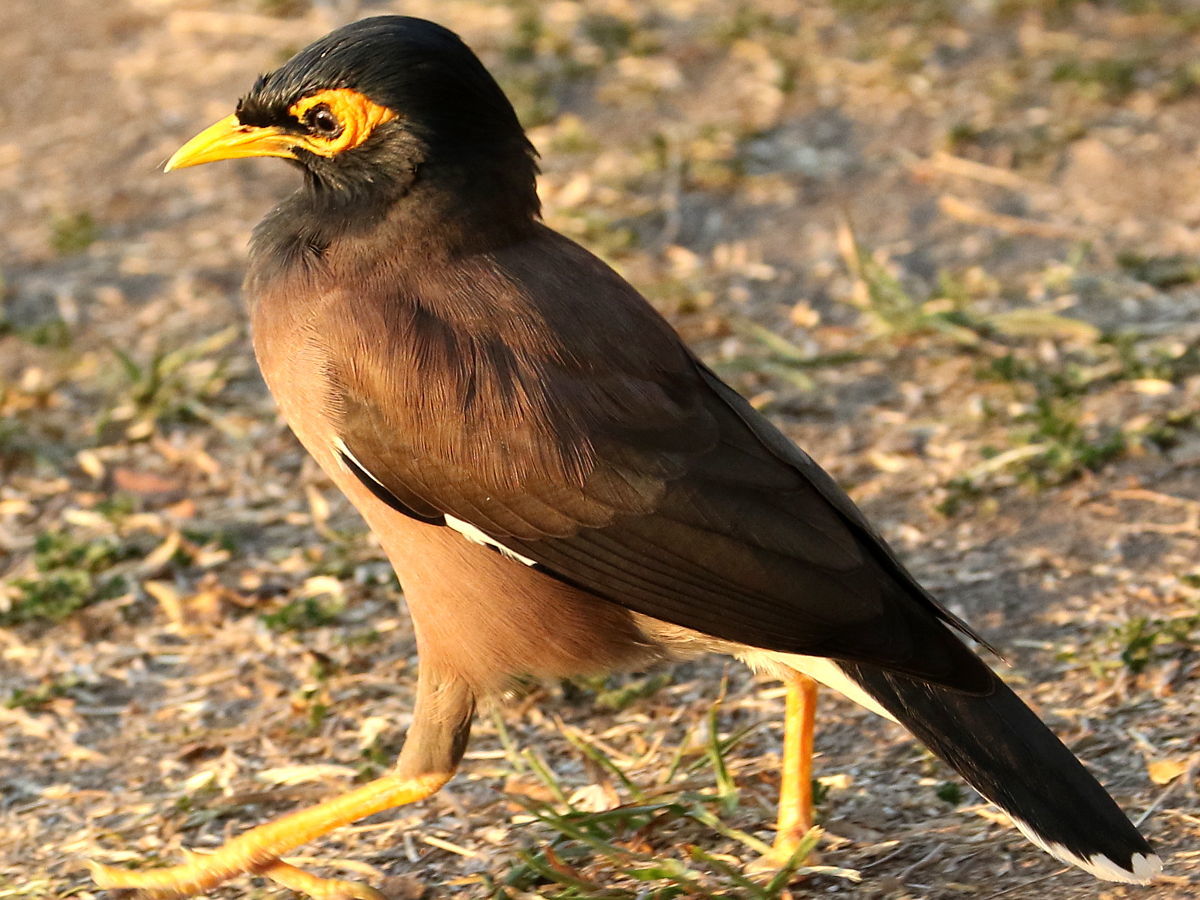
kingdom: Animalia
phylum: Chordata
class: Aves
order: Passeriformes
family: Sturnidae
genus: Acridotheres
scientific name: Acridotheres tristis
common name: Common myna
